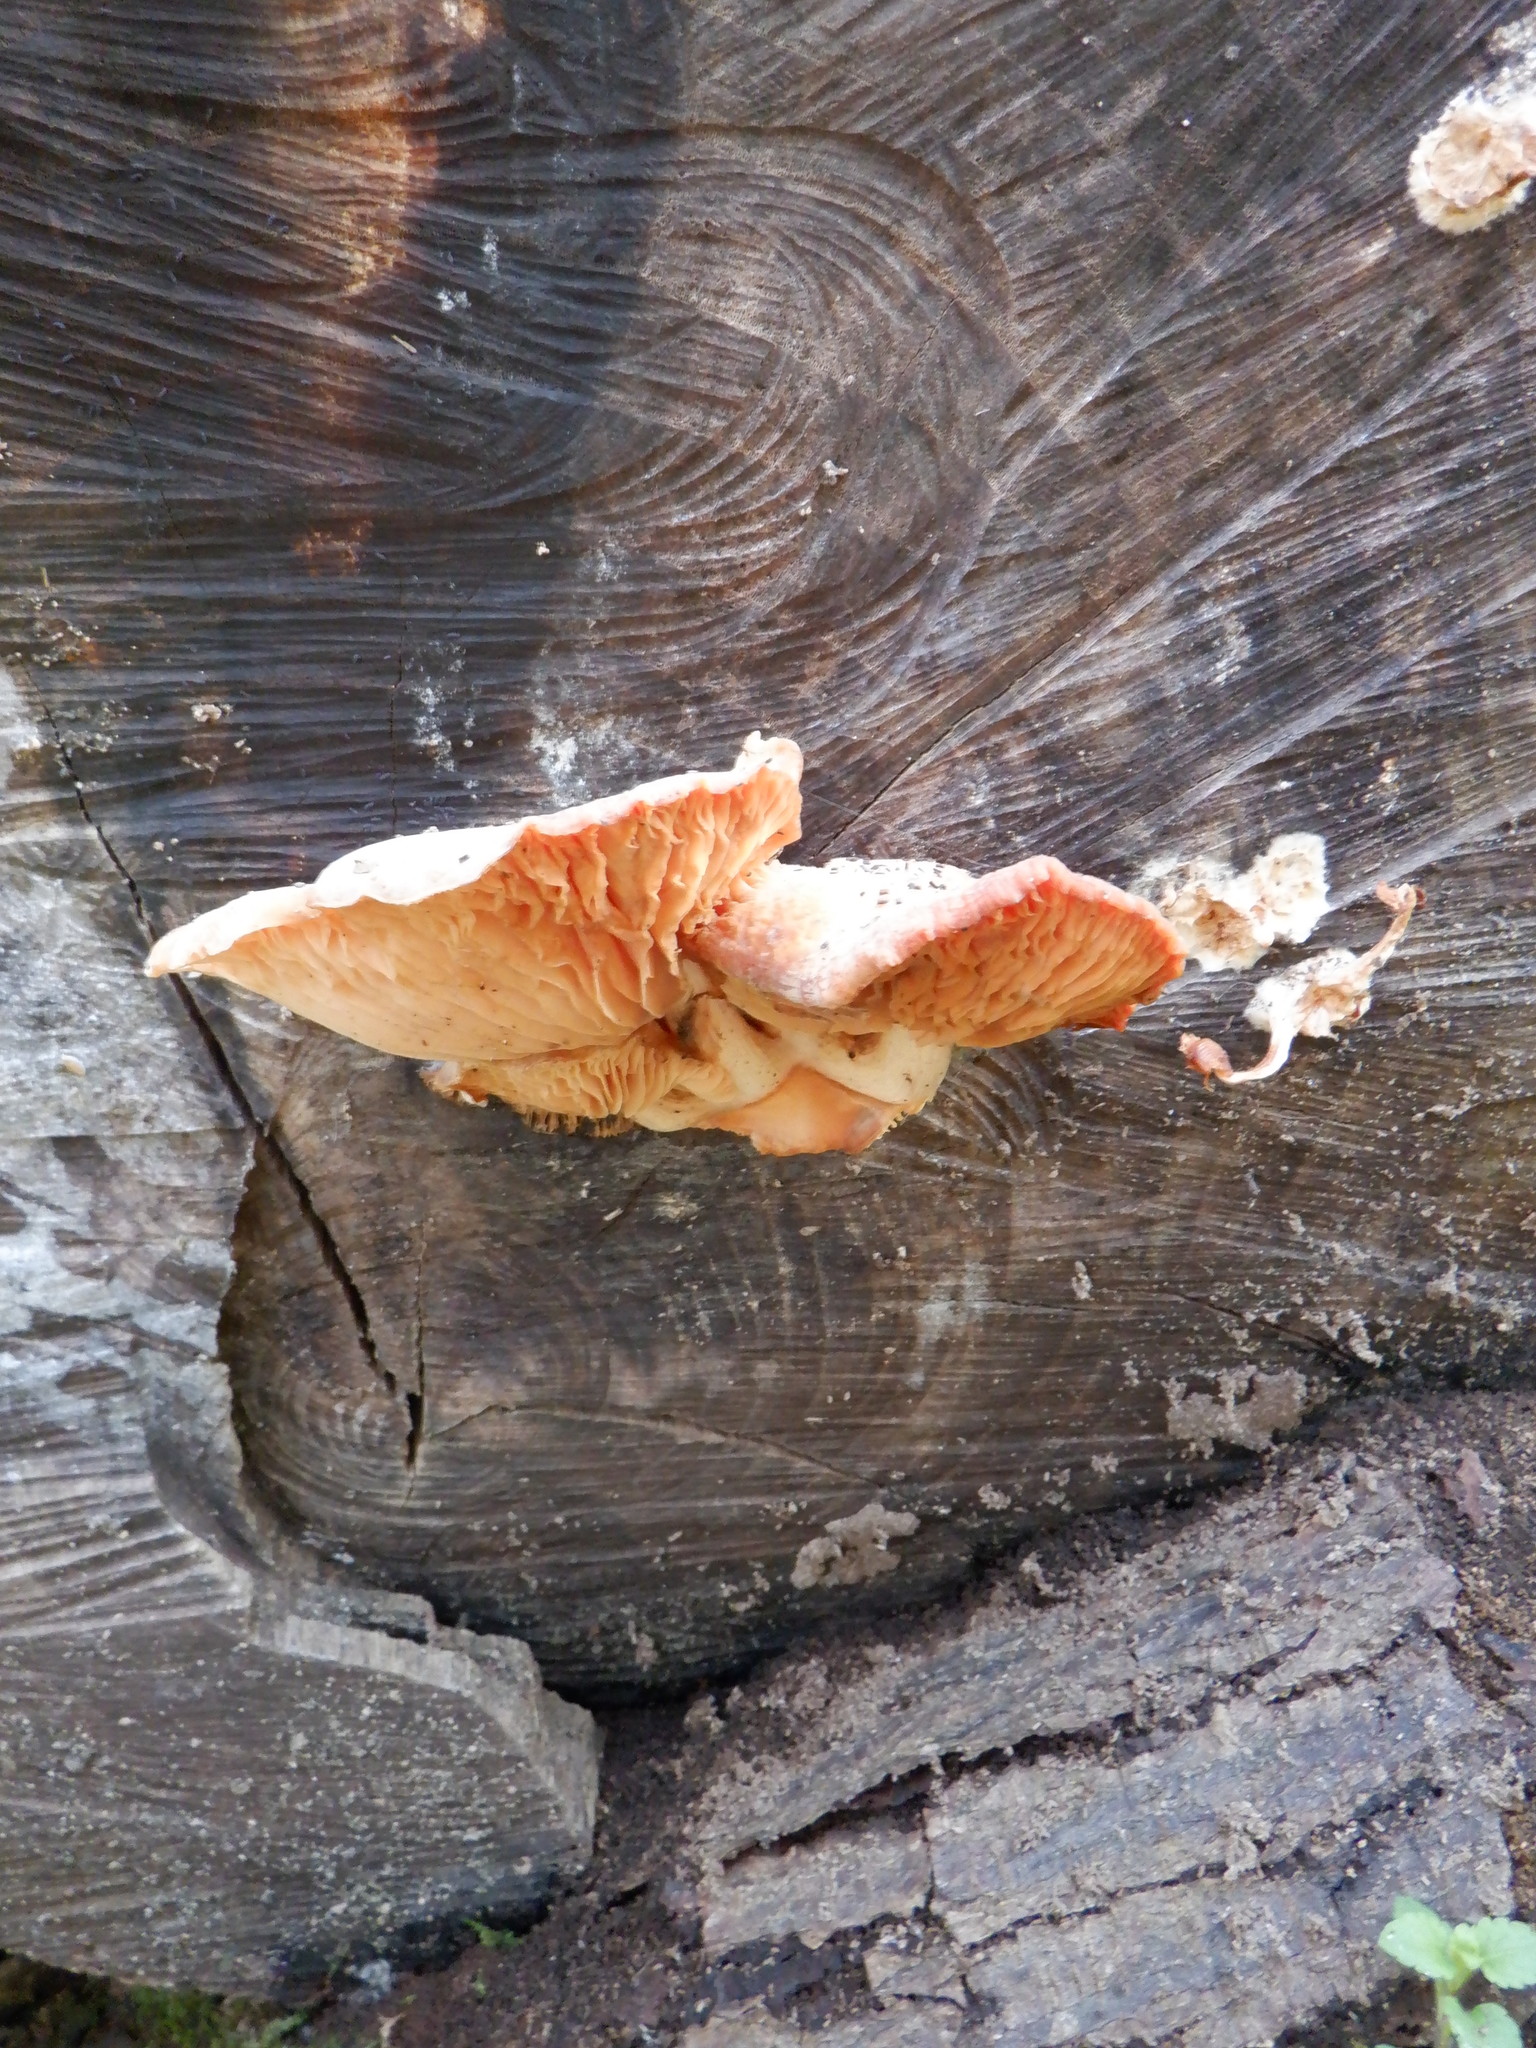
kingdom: Fungi
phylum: Basidiomycota
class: Agaricomycetes
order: Agaricales
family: Physalacriaceae
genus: Rhodotus
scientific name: Rhodotus palmatus
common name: Wrinkled peach
